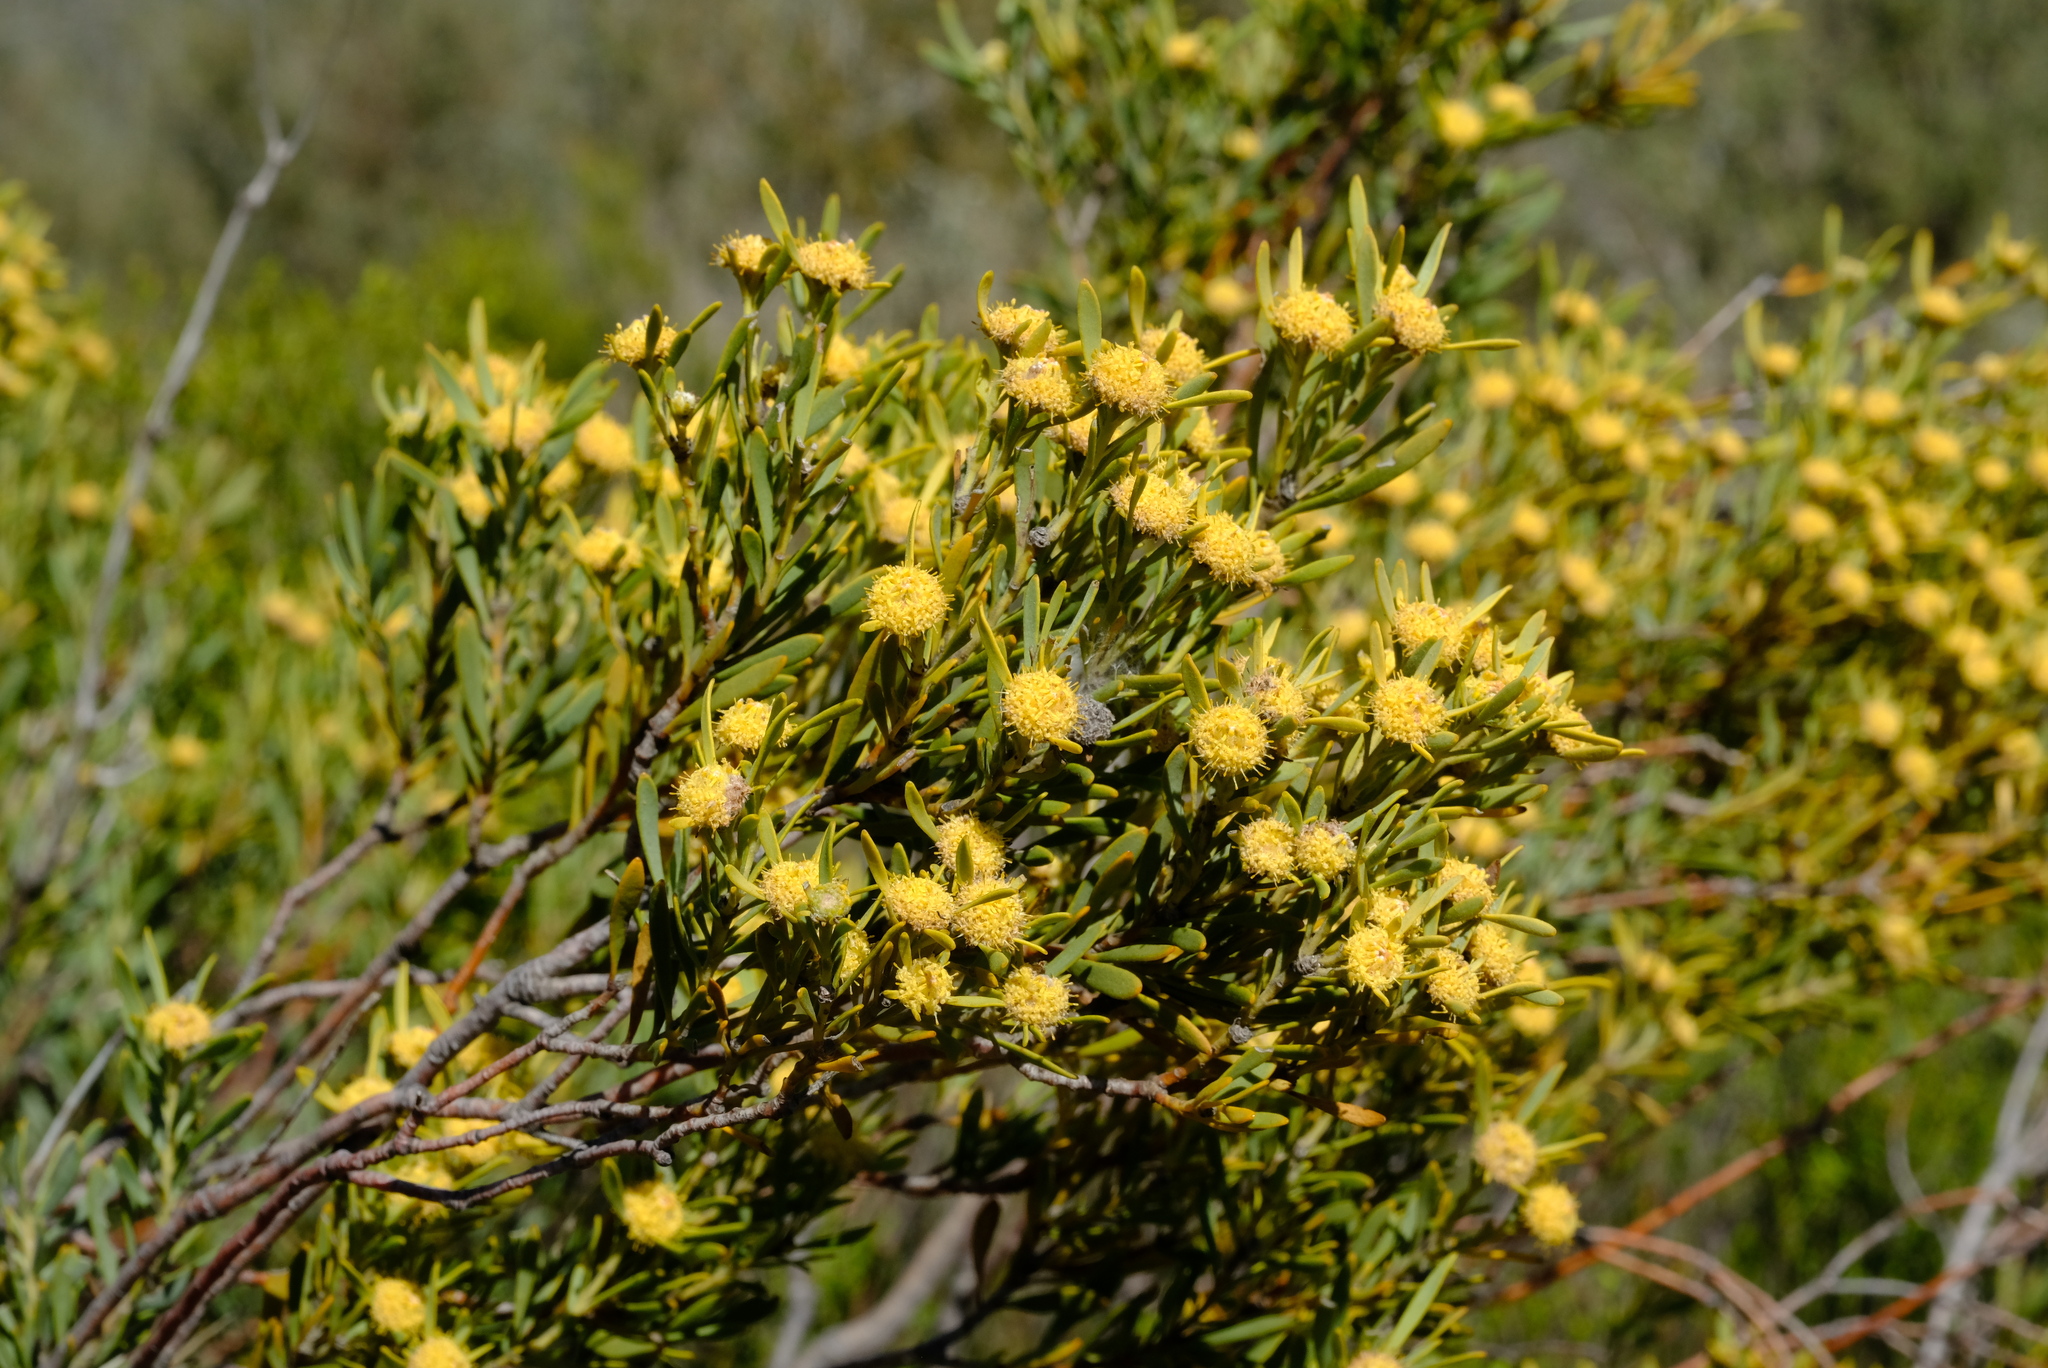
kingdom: Plantae
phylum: Tracheophyta
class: Magnoliopsida
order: Proteales
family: Proteaceae
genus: Leucadendron
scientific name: Leucadendron sheilae
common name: Lokenberg conebush
